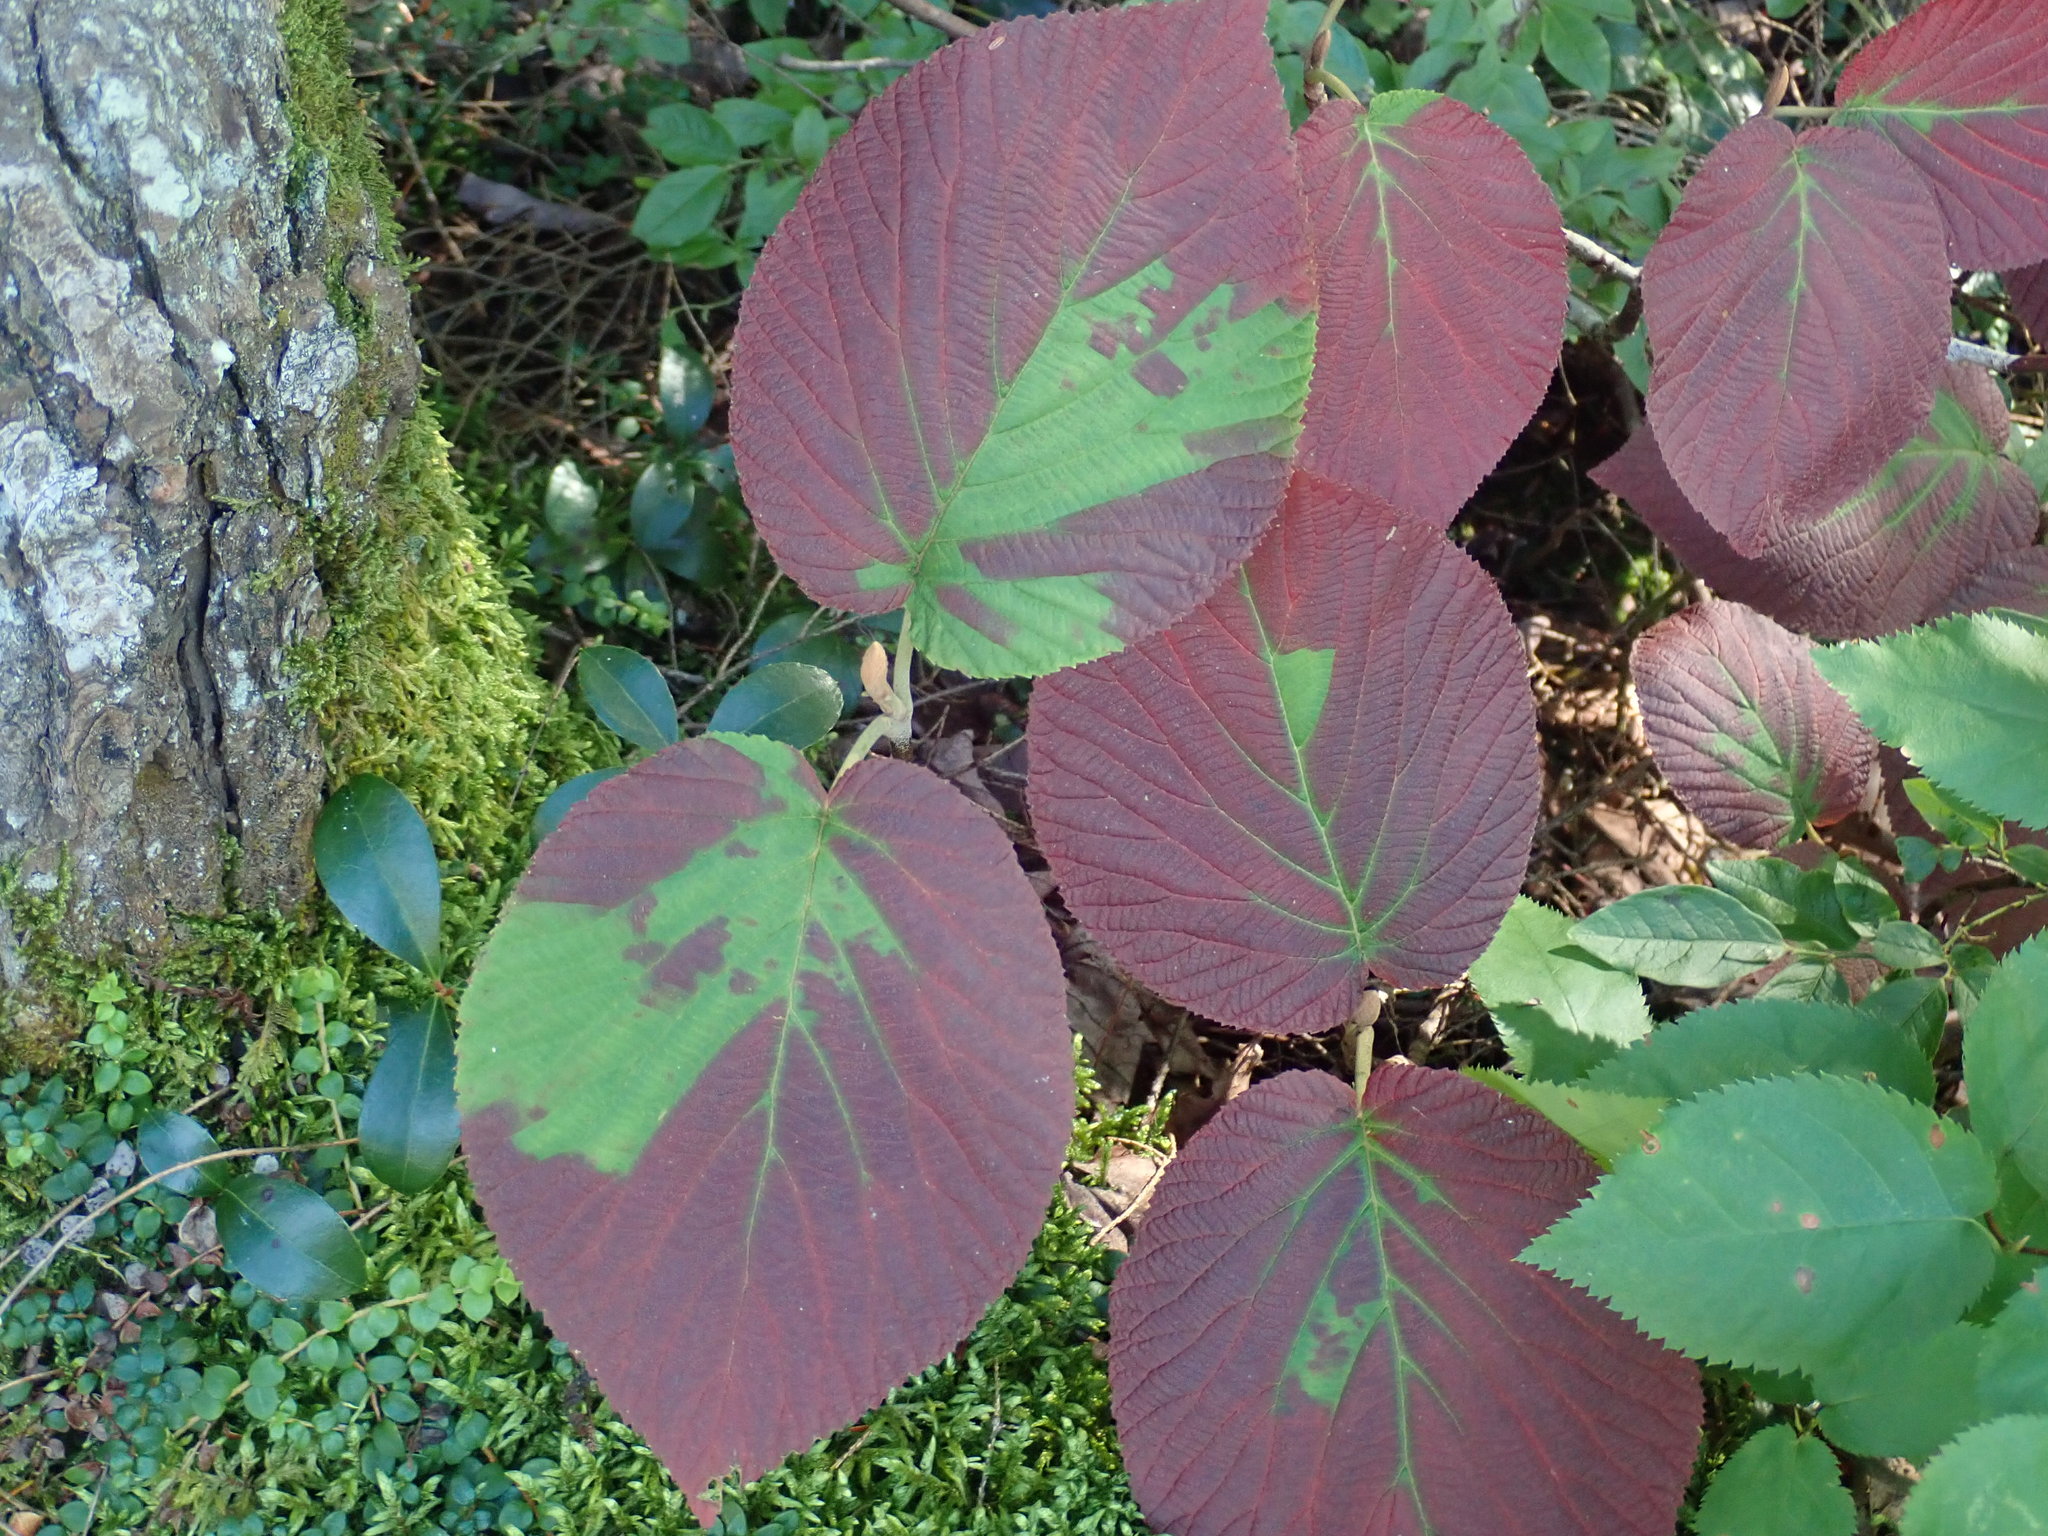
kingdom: Plantae
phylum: Tracheophyta
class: Magnoliopsida
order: Dipsacales
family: Viburnaceae
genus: Viburnum
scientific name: Viburnum lantanoides
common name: Hobblebush
